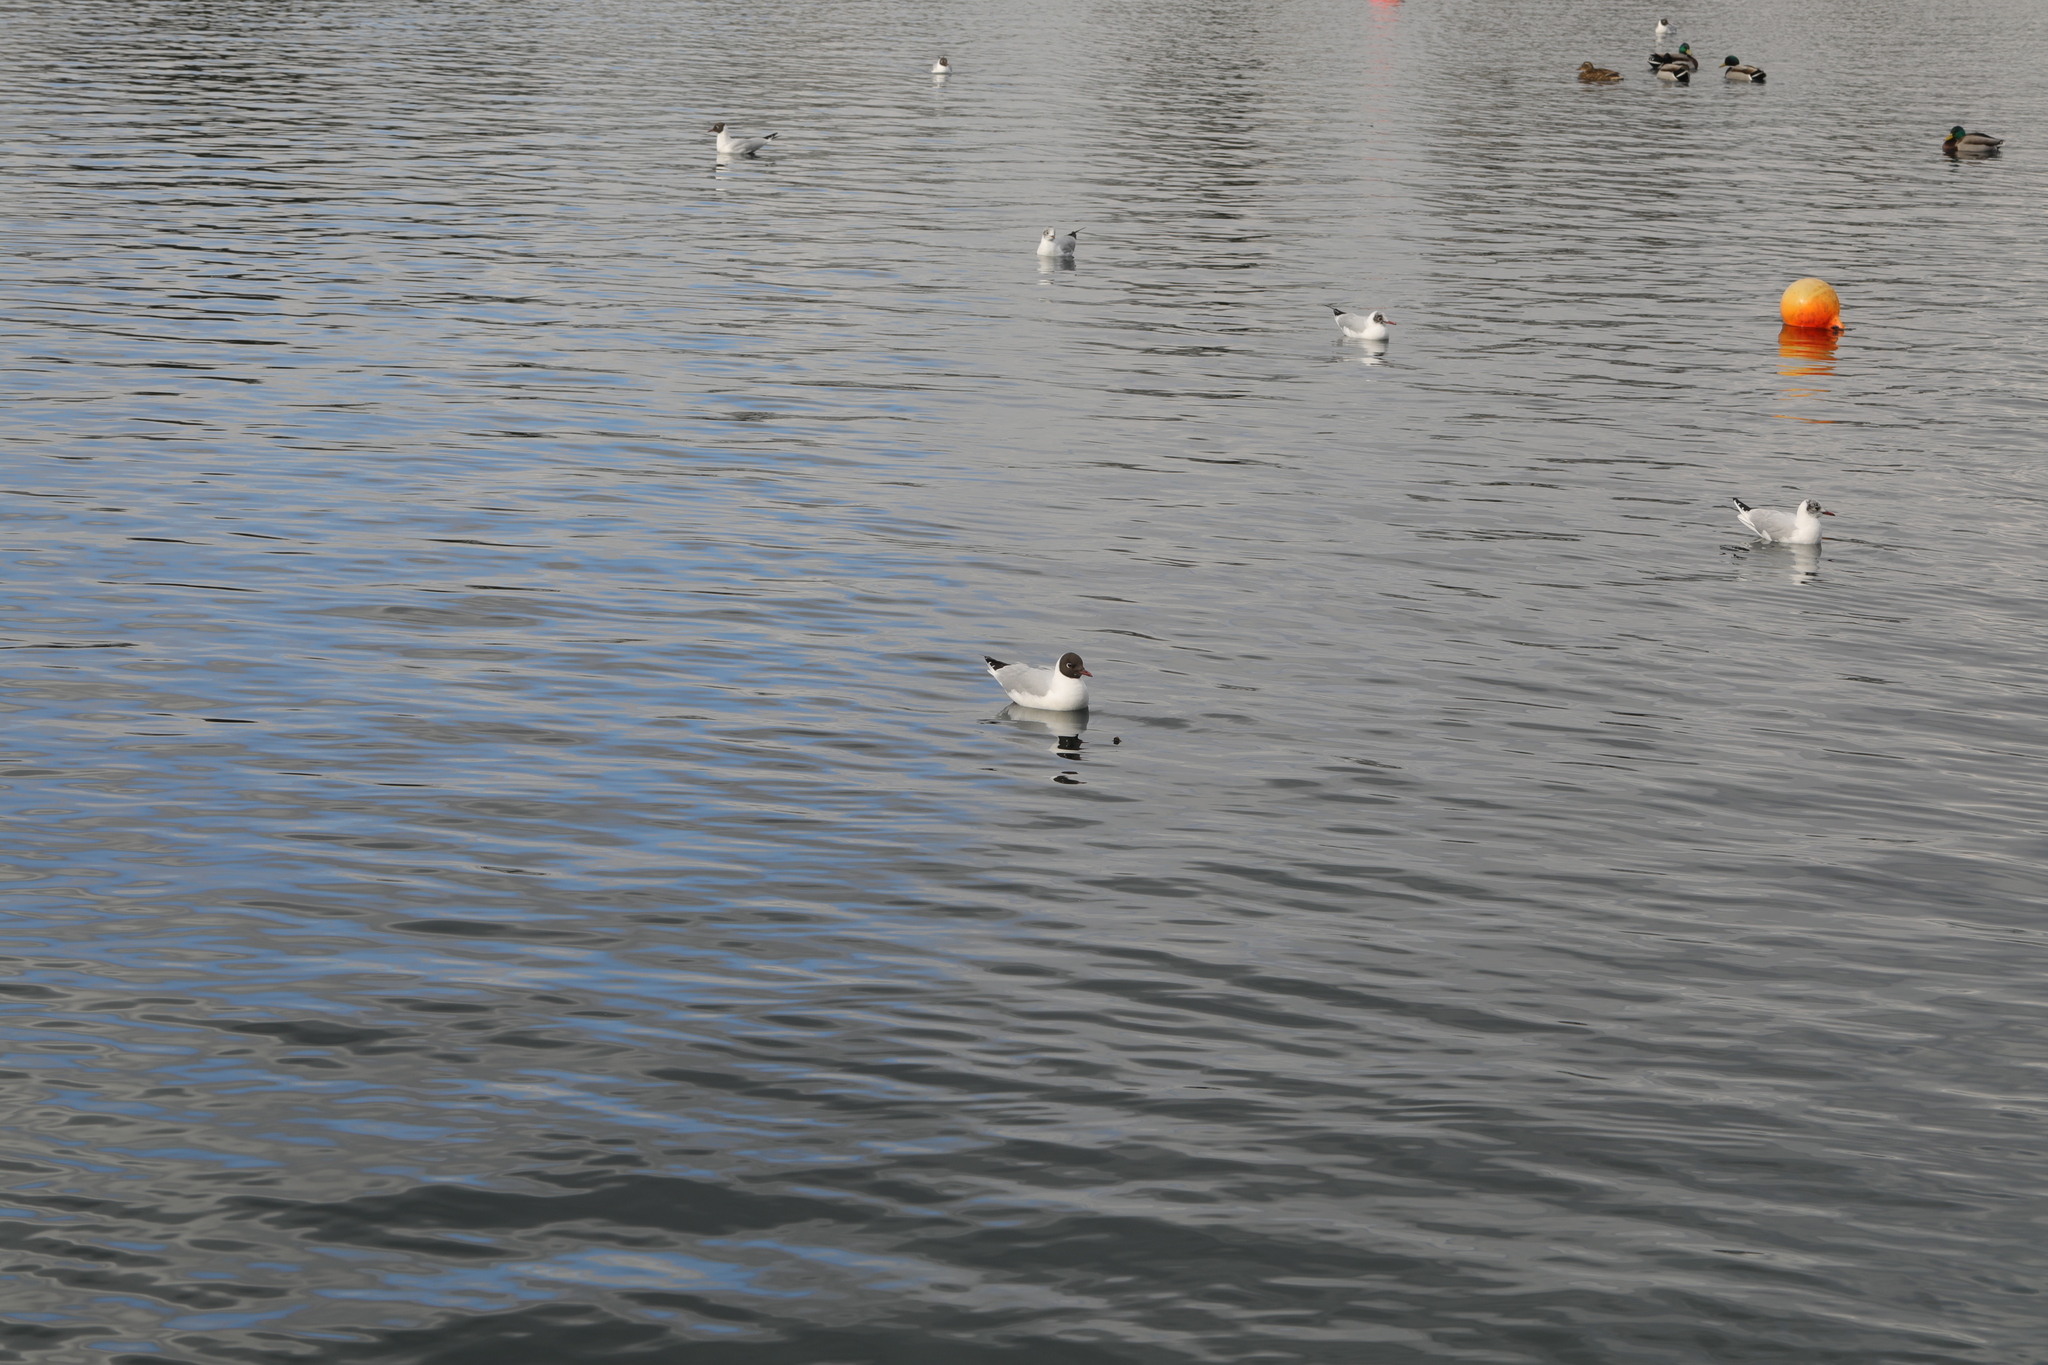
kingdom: Animalia
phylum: Chordata
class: Aves
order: Charadriiformes
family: Laridae
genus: Chroicocephalus
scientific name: Chroicocephalus ridibundus
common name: Black-headed gull
